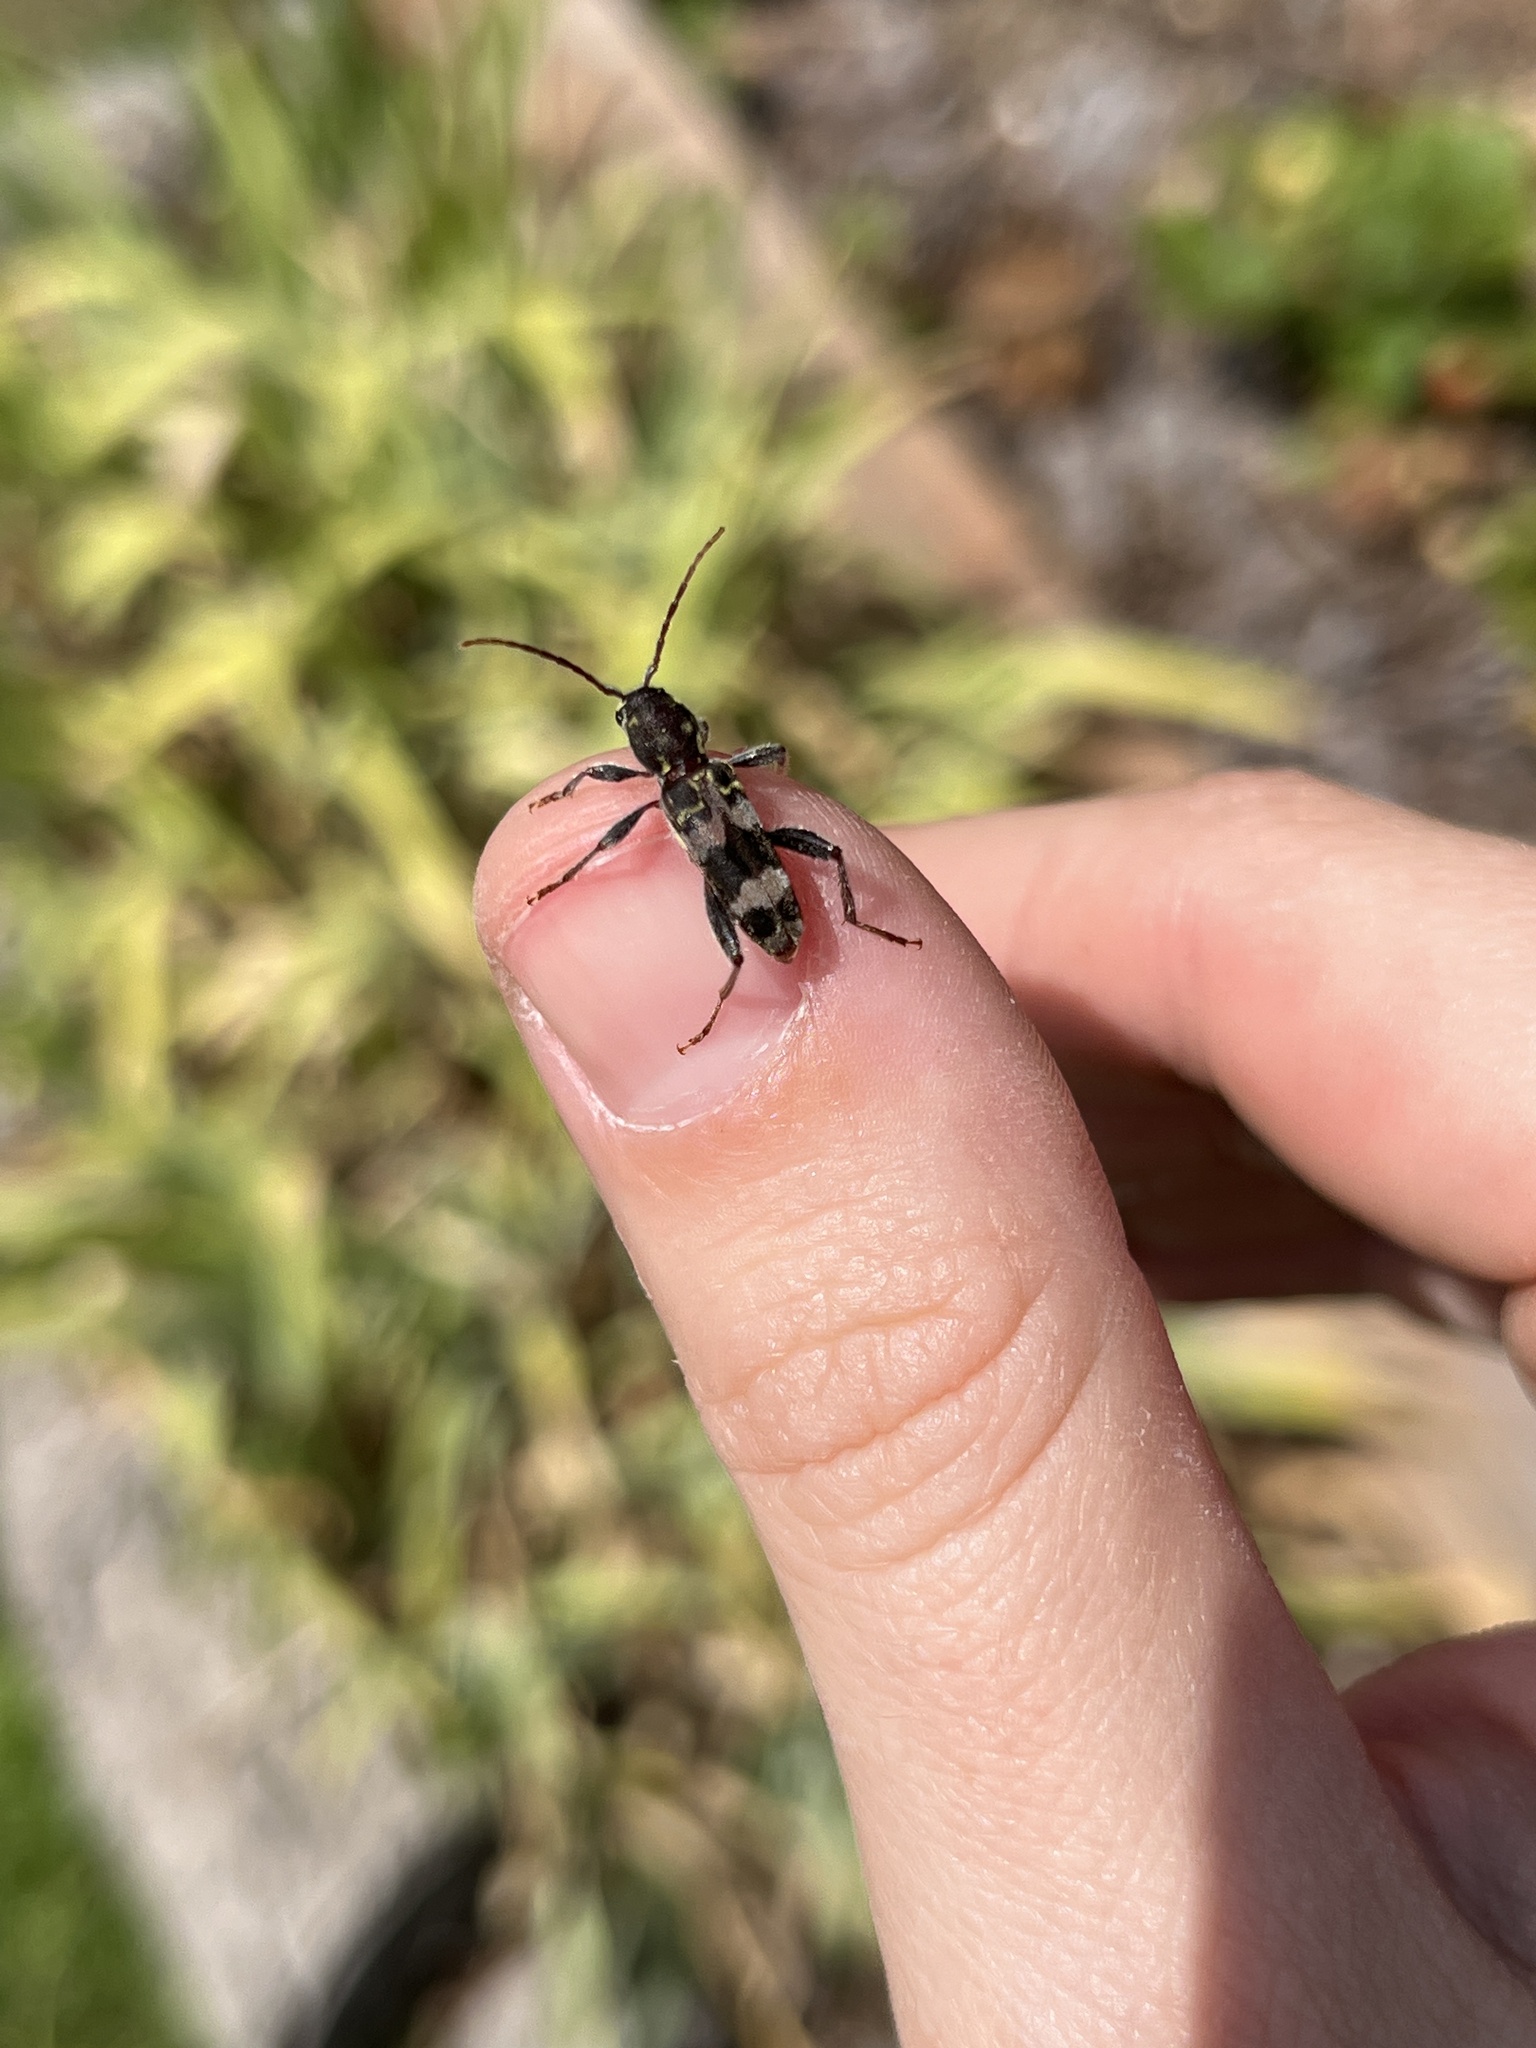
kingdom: Animalia
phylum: Arthropoda
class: Insecta
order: Coleoptera
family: Cerambycidae
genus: Xylotrechus
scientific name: Xylotrechus colonus
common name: Long-horned beetle
